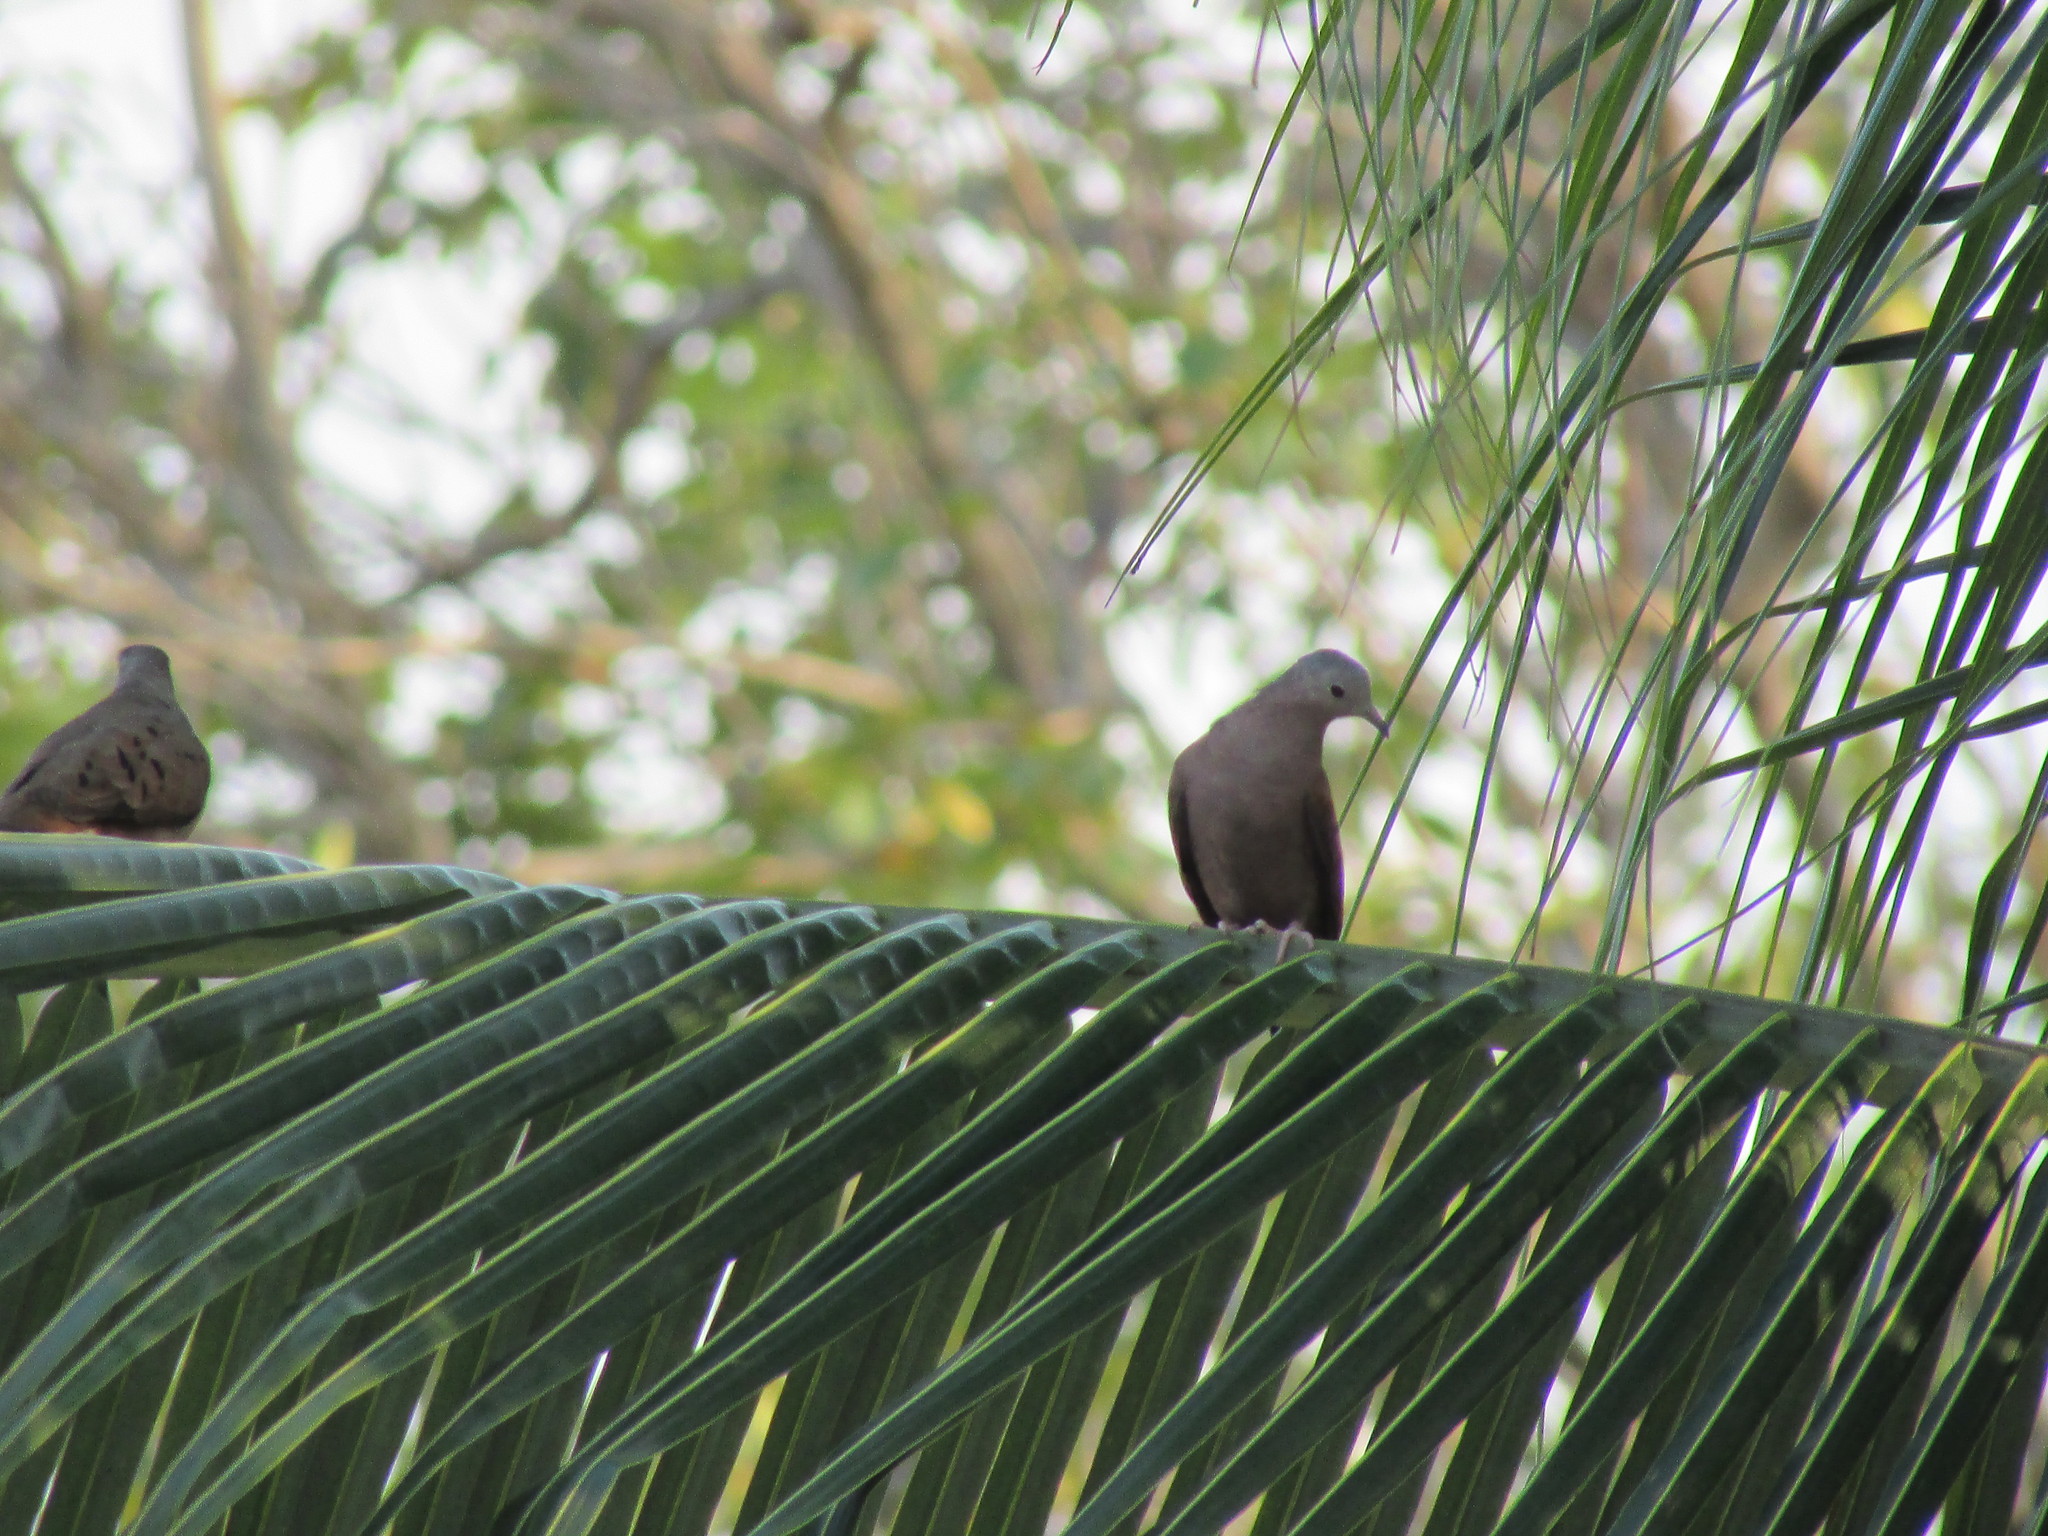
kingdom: Animalia
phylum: Chordata
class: Aves
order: Columbiformes
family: Columbidae
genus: Columbina
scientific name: Columbina talpacoti
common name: Ruddy ground dove
